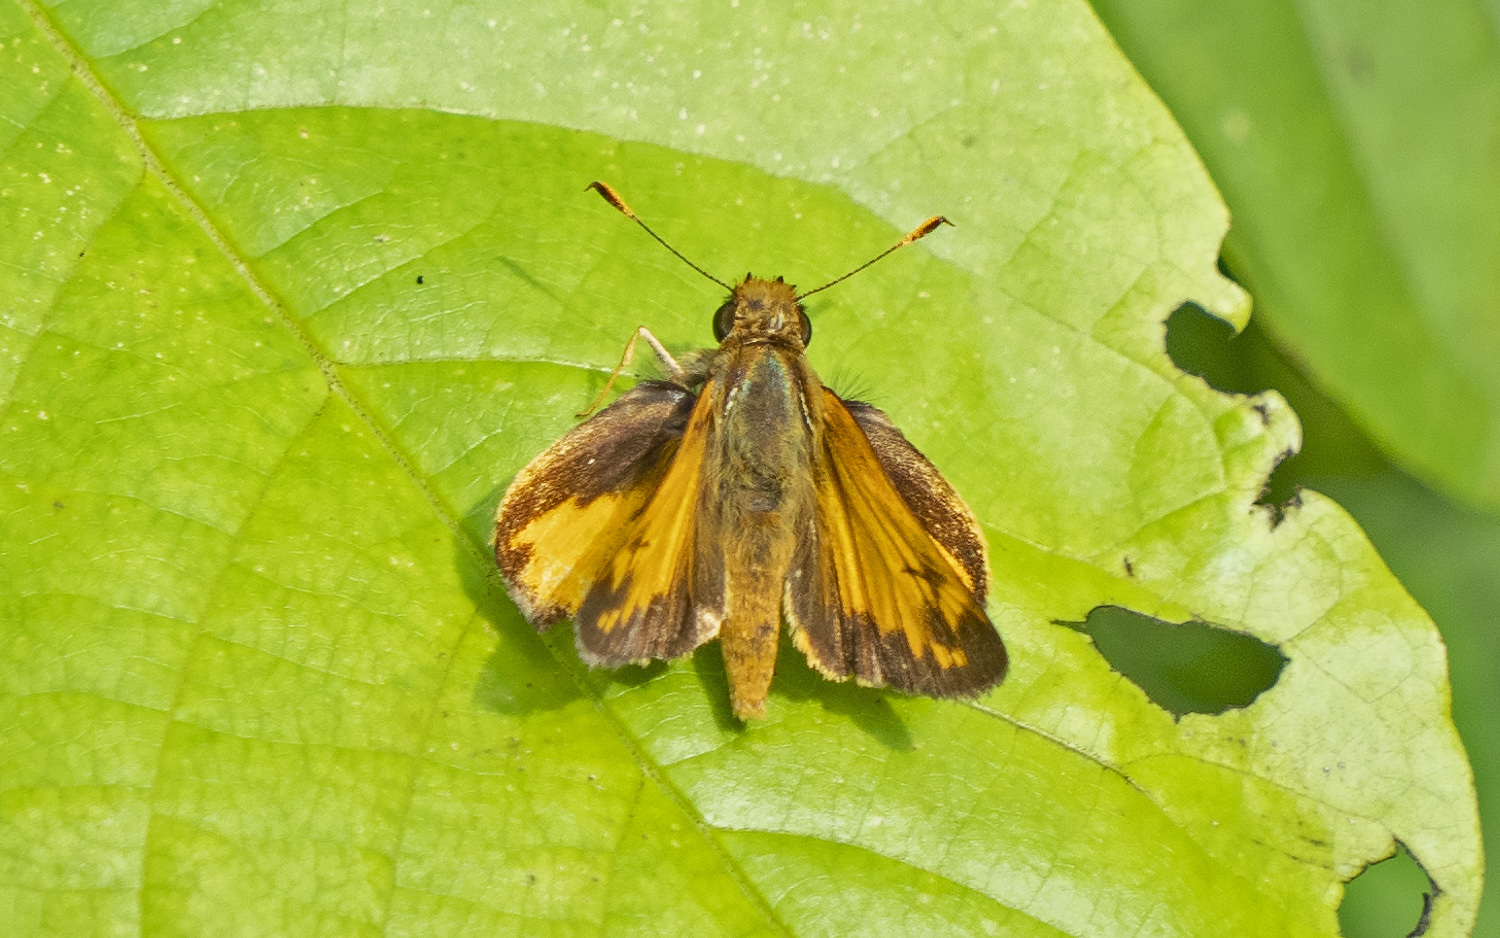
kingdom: Animalia
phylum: Arthropoda
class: Insecta
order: Lepidoptera
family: Hesperiidae
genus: Lon
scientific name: Lon zabulon
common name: Zabulon skipper
